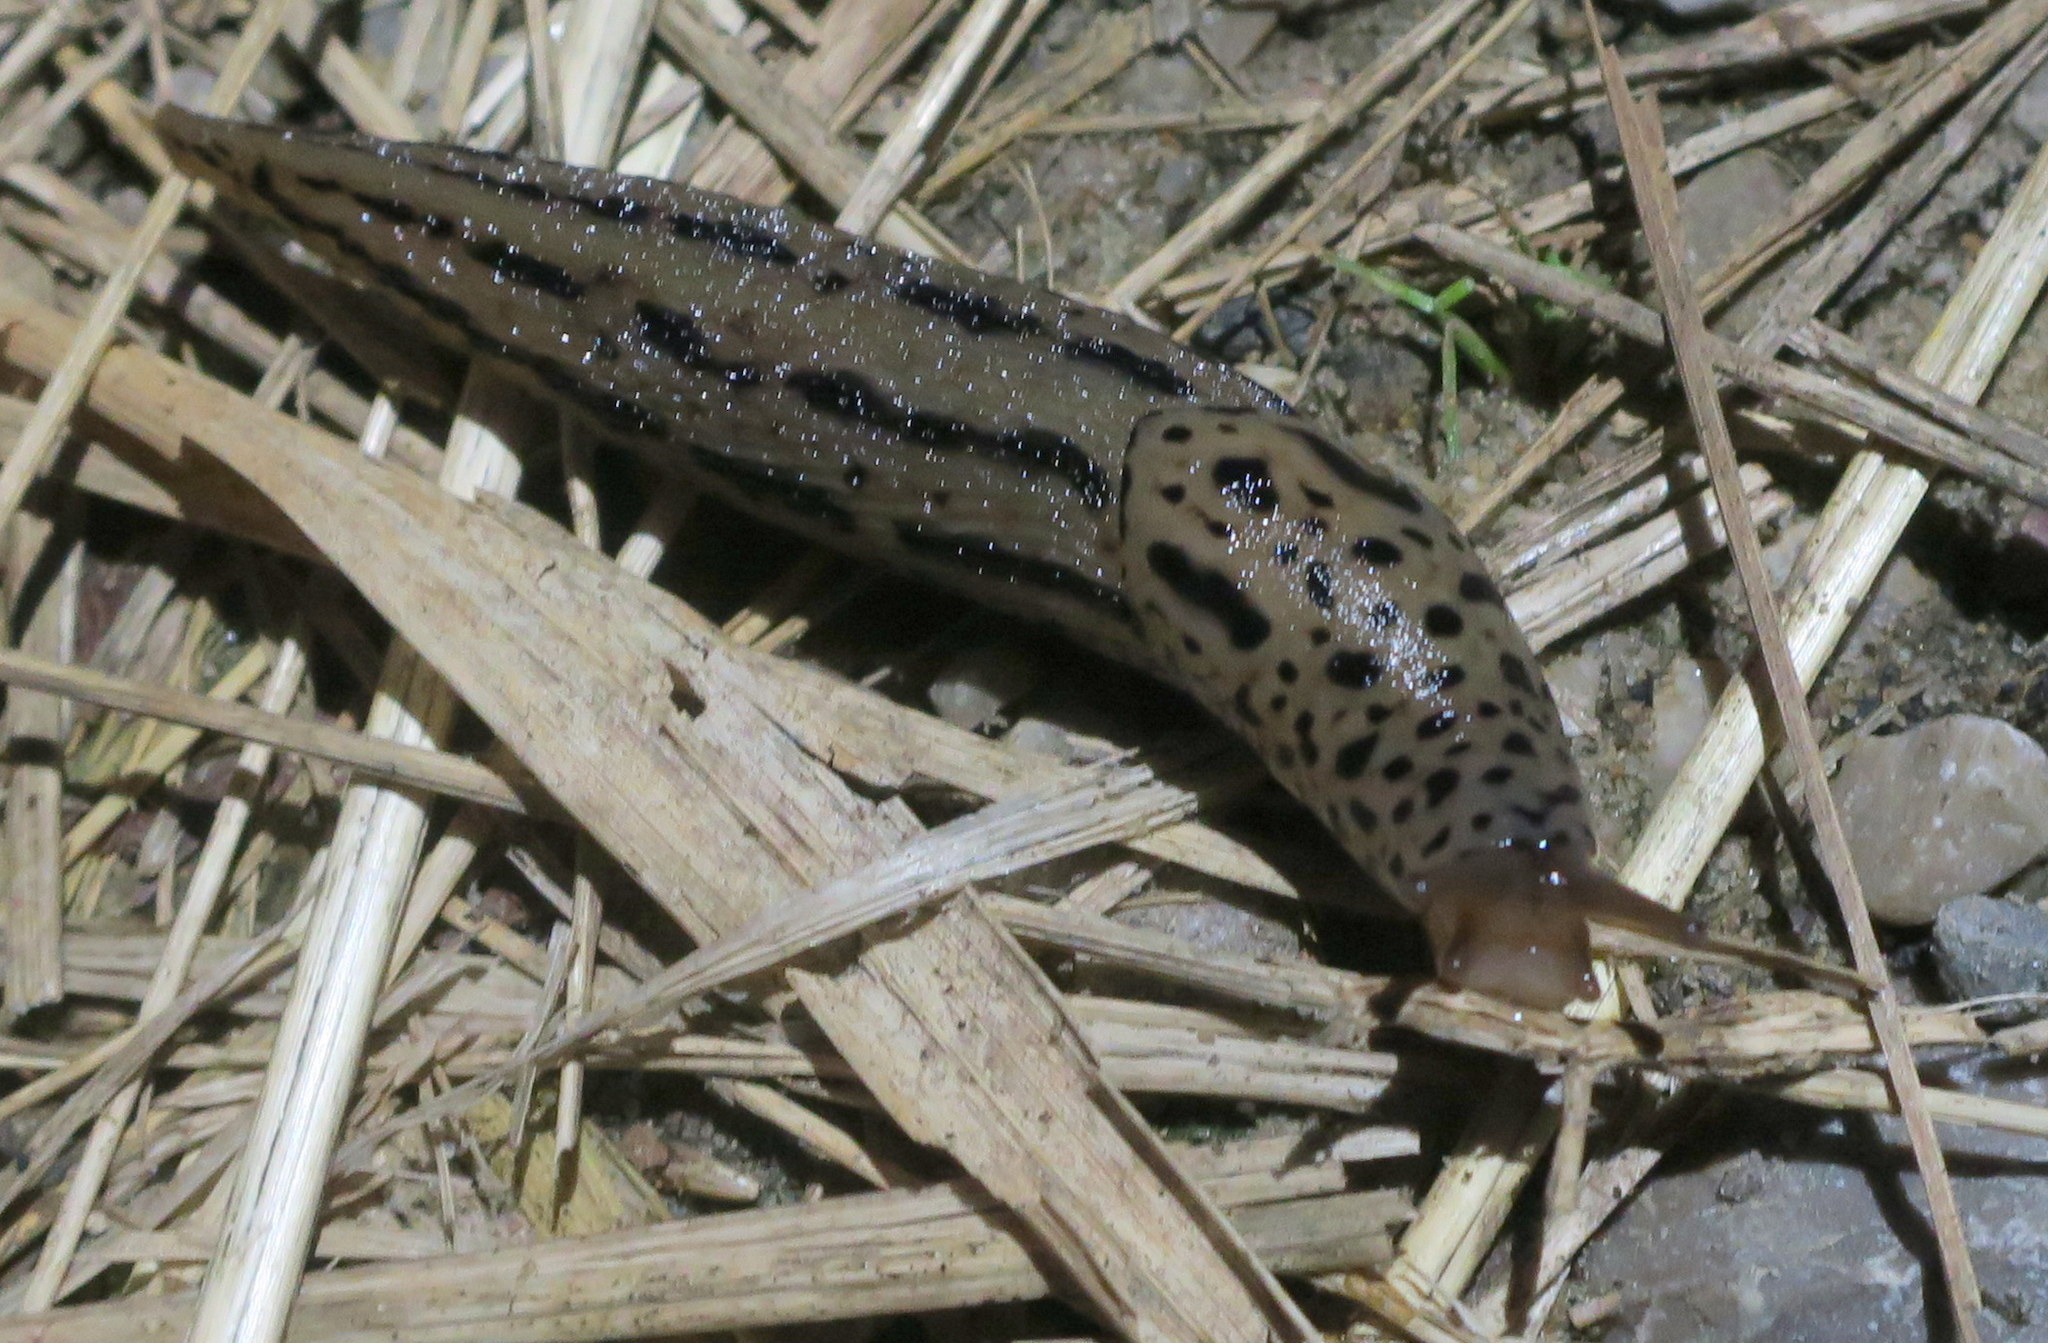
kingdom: Animalia
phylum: Mollusca
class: Gastropoda
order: Stylommatophora
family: Limacidae
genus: Limax
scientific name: Limax maximus
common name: Great grey slug
